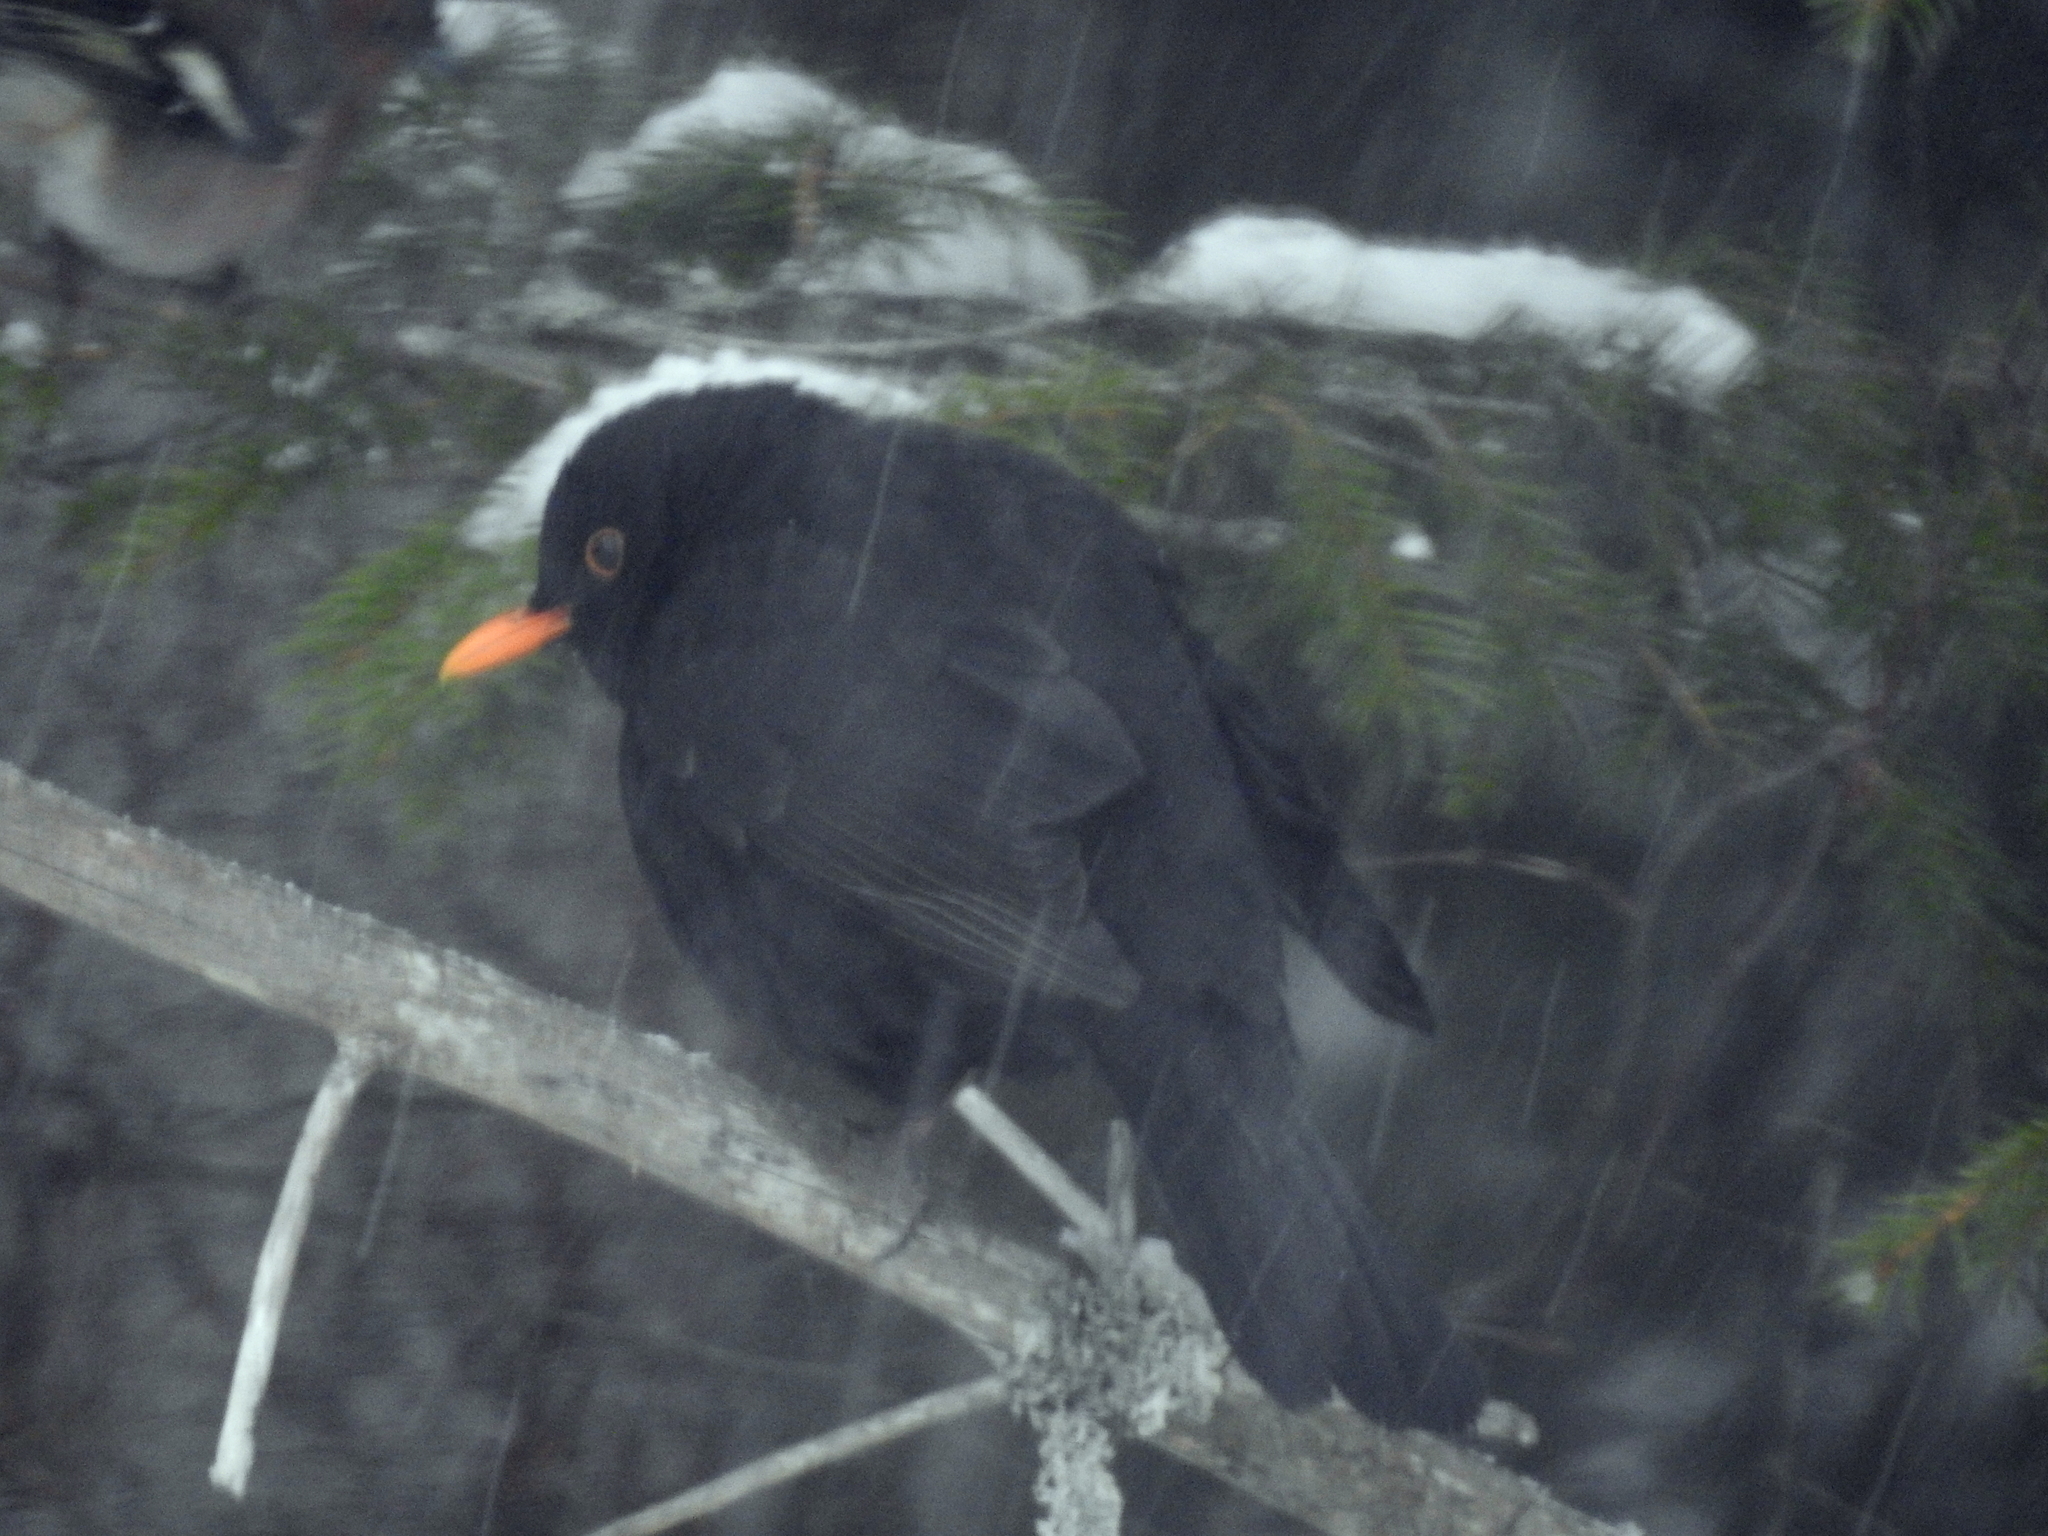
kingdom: Animalia
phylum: Chordata
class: Aves
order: Passeriformes
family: Turdidae
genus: Turdus
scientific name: Turdus merula
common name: Common blackbird
